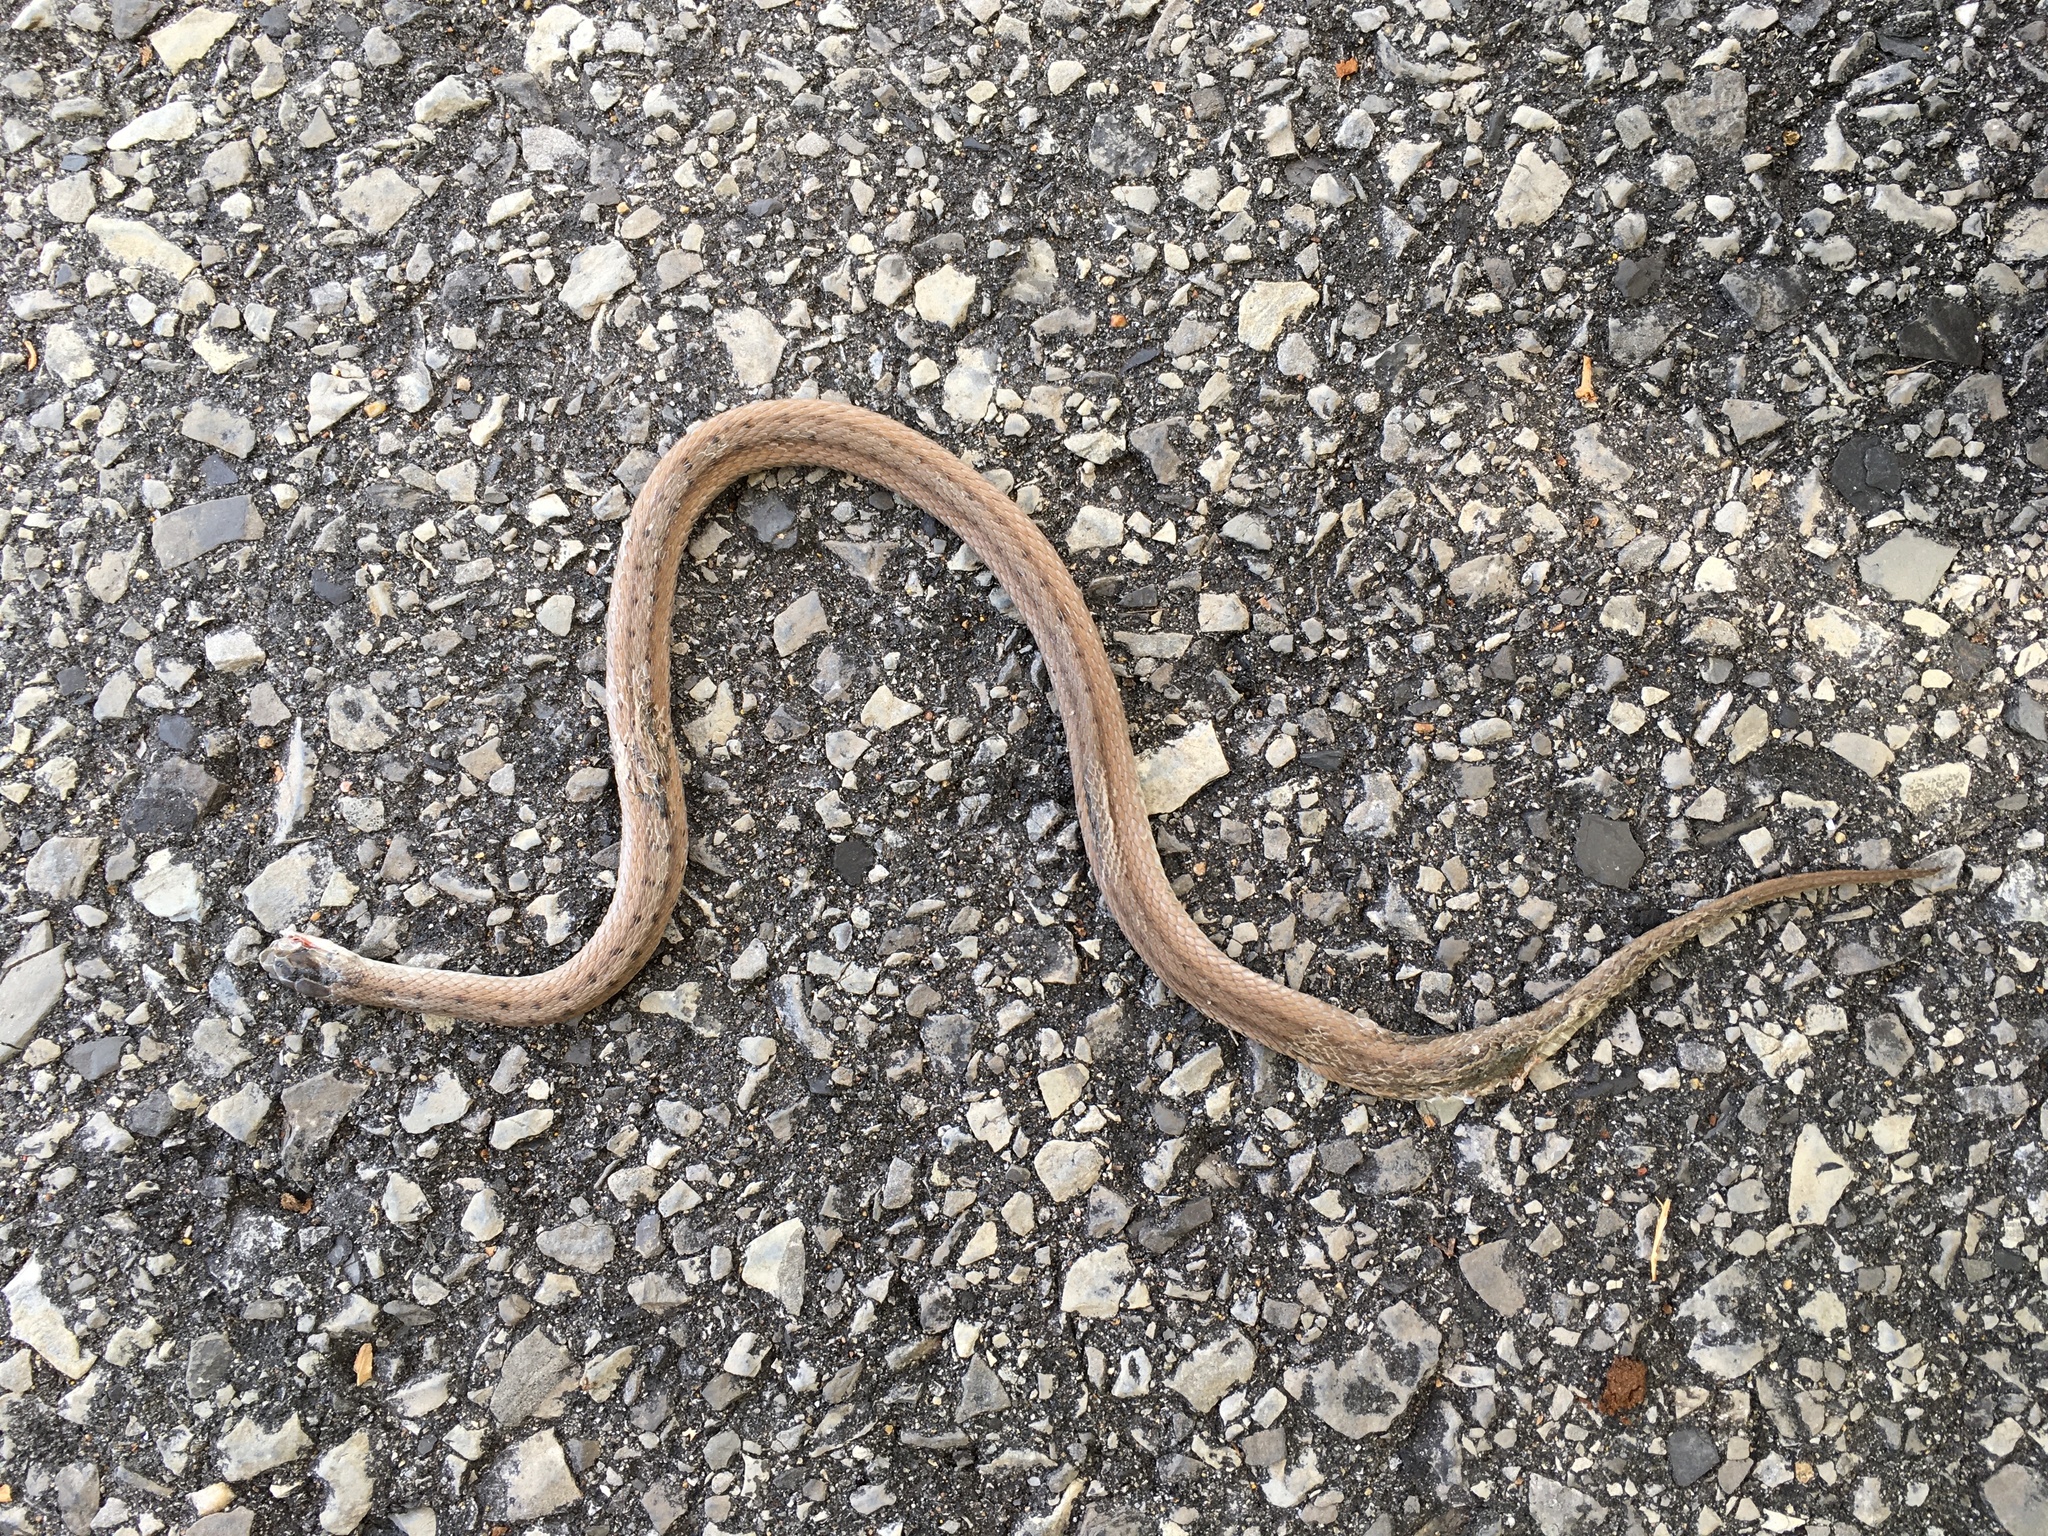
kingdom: Animalia
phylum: Chordata
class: Squamata
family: Colubridae
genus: Storeria
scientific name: Storeria dekayi
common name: (dekay’s) brown snake
